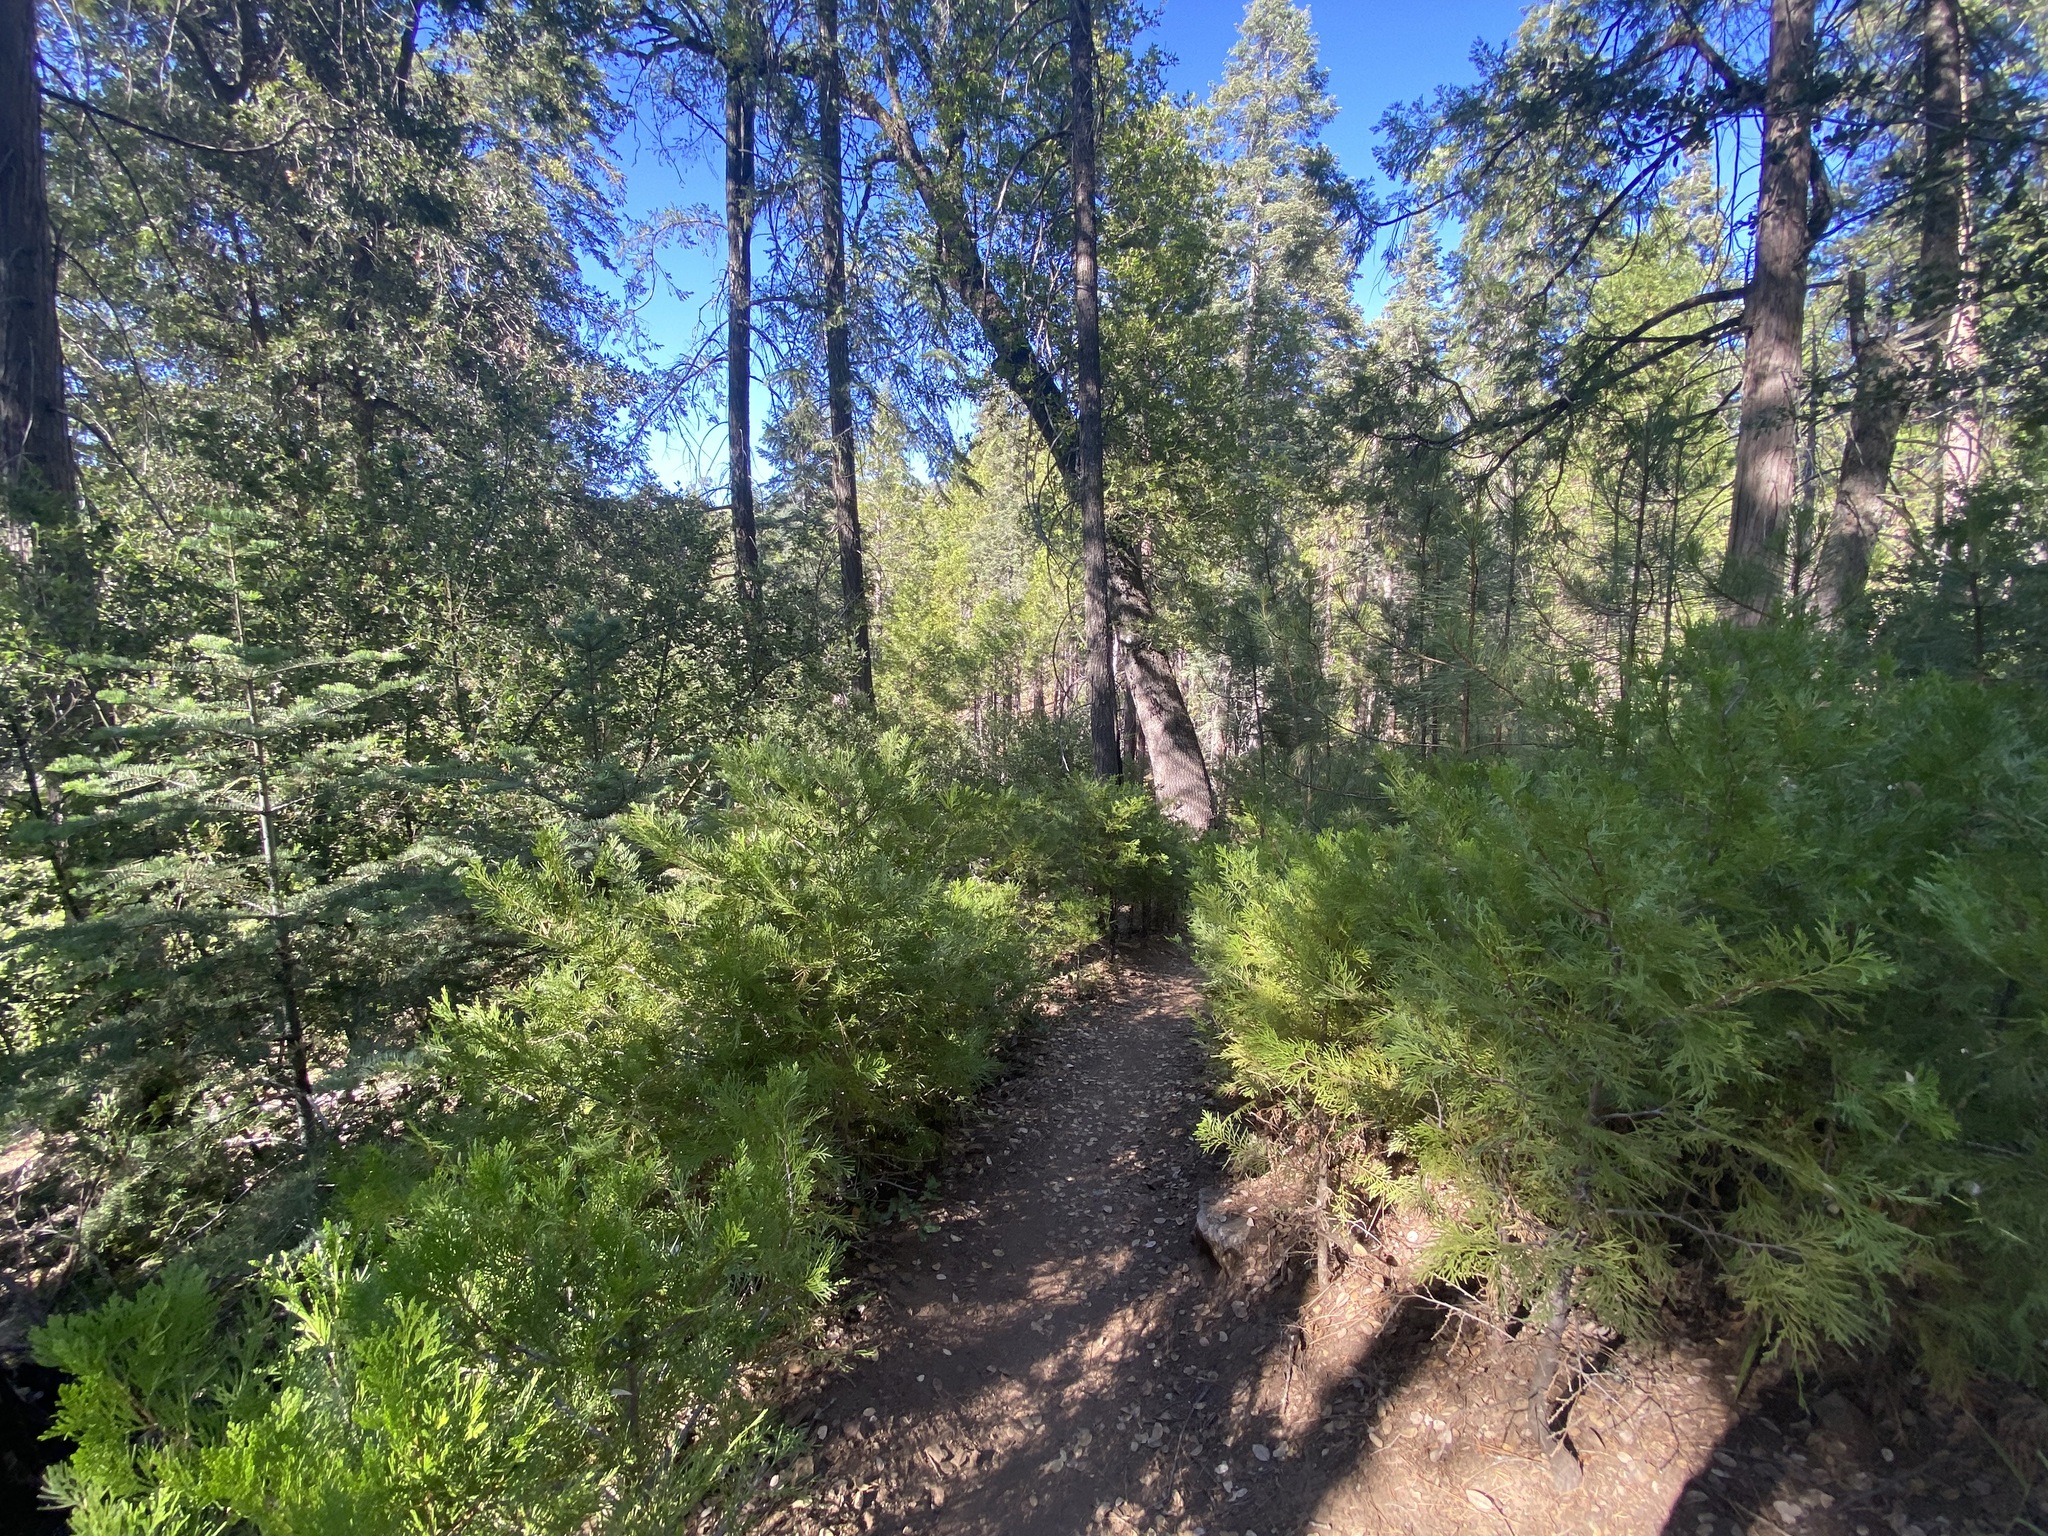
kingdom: Plantae
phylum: Tracheophyta
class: Pinopsida
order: Pinales
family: Cupressaceae
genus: Calocedrus
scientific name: Calocedrus decurrens
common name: Californian incense-cedar
